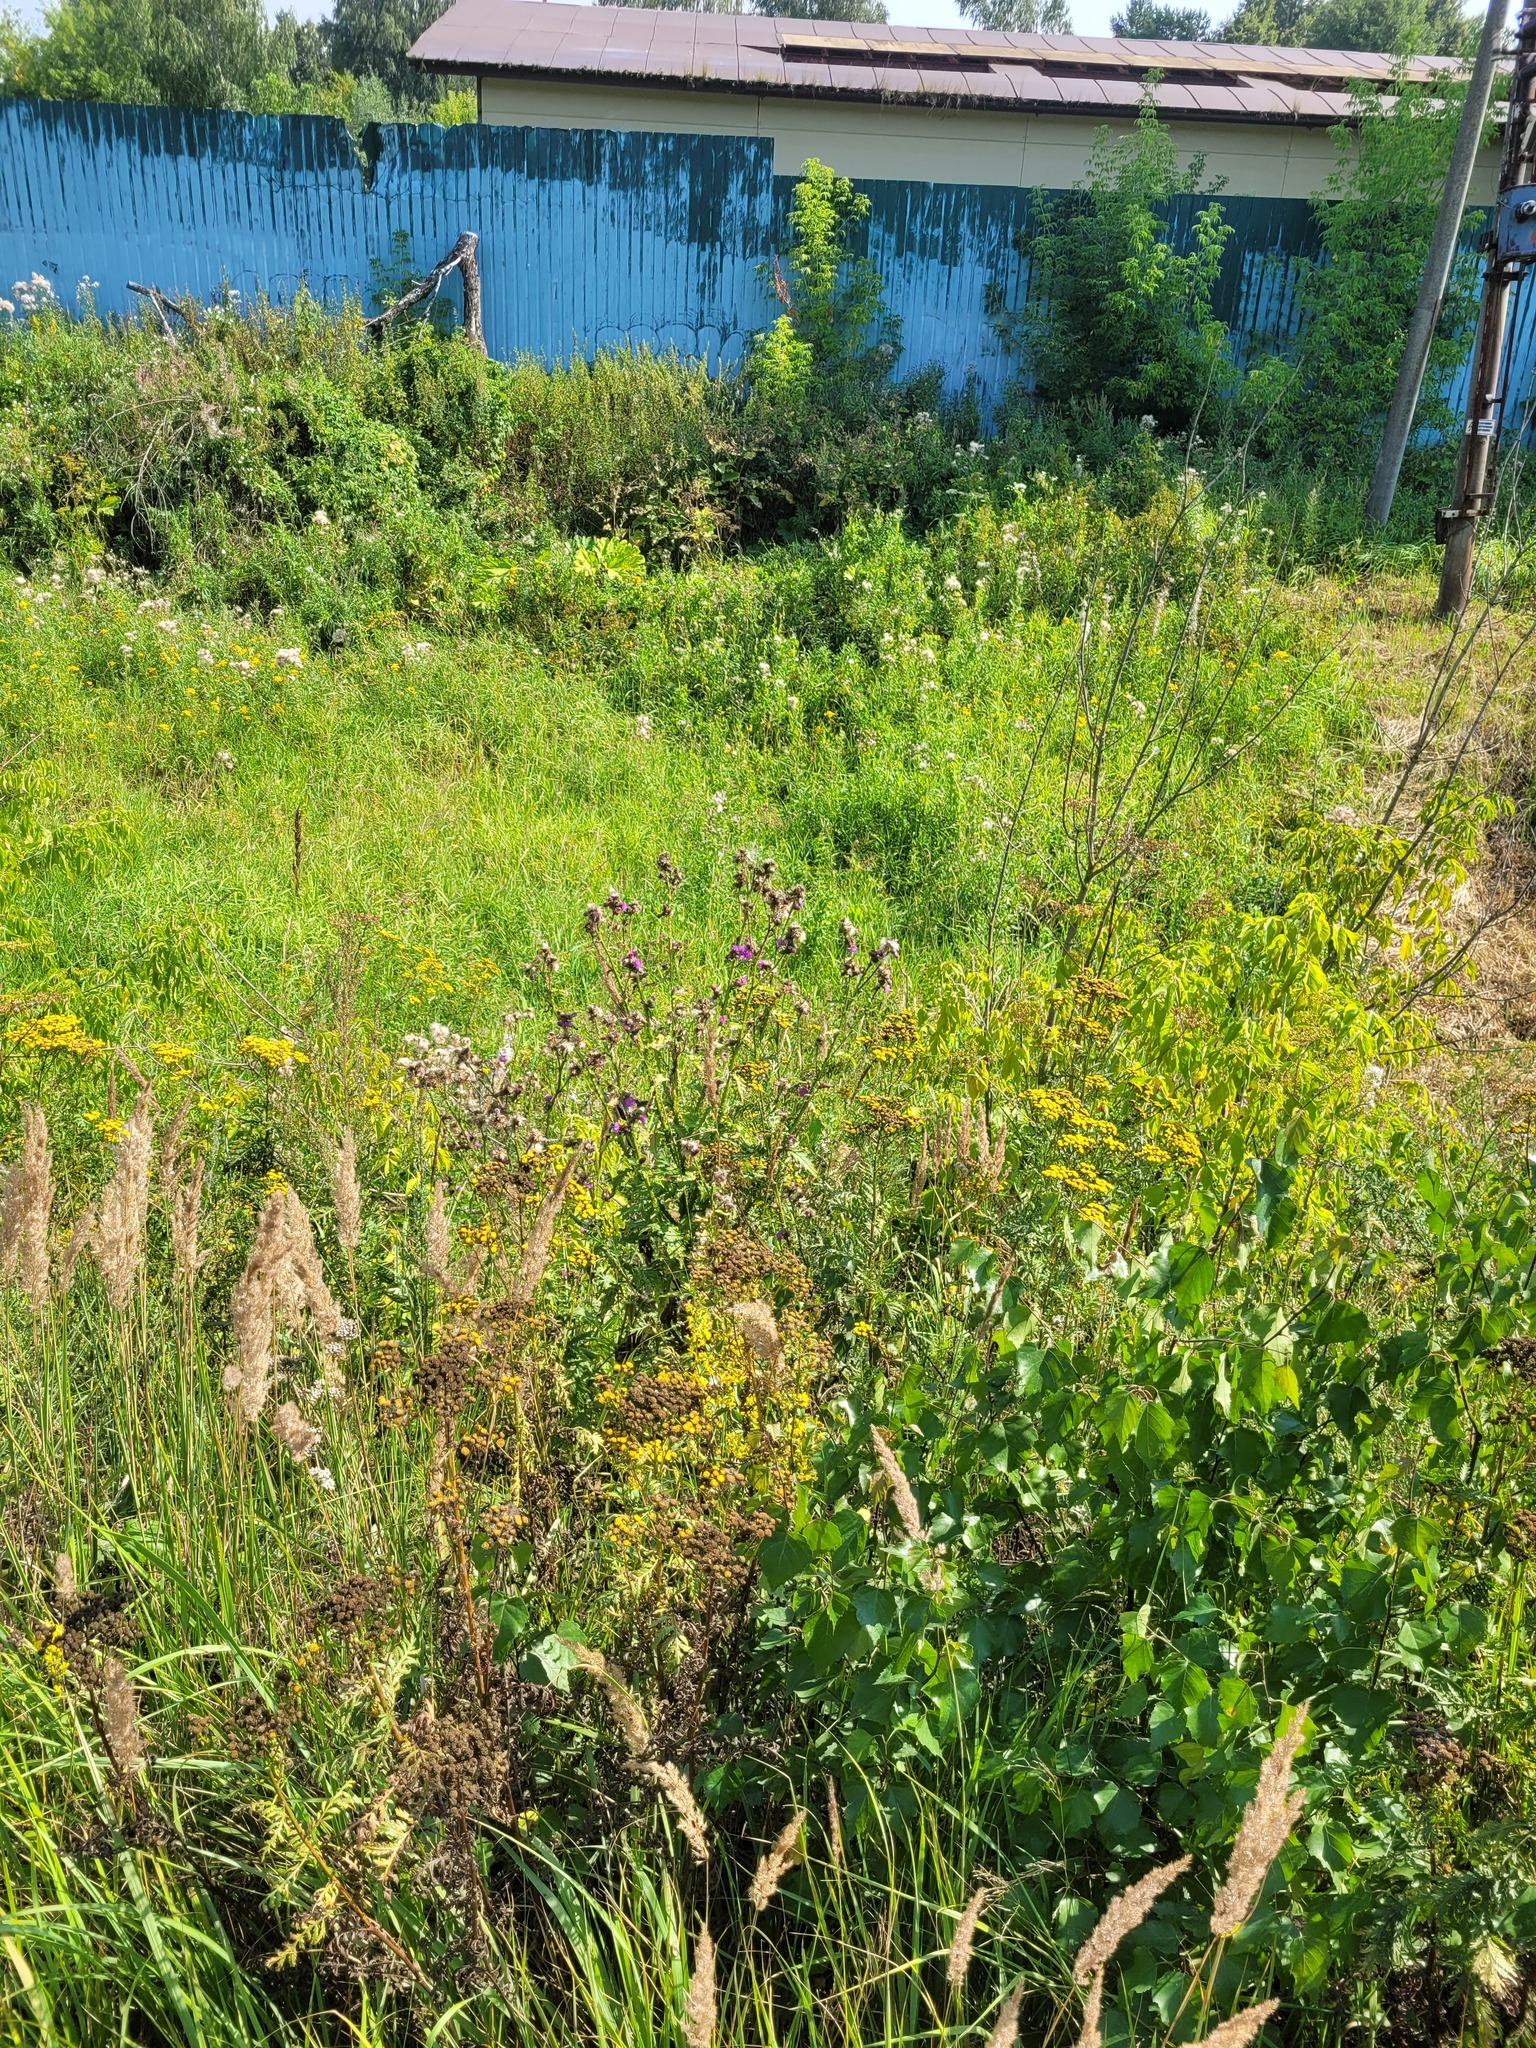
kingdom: Plantae
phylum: Tracheophyta
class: Magnoliopsida
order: Asterales
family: Asteraceae
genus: Carduus
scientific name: Carduus crispus
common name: Welted thistle
